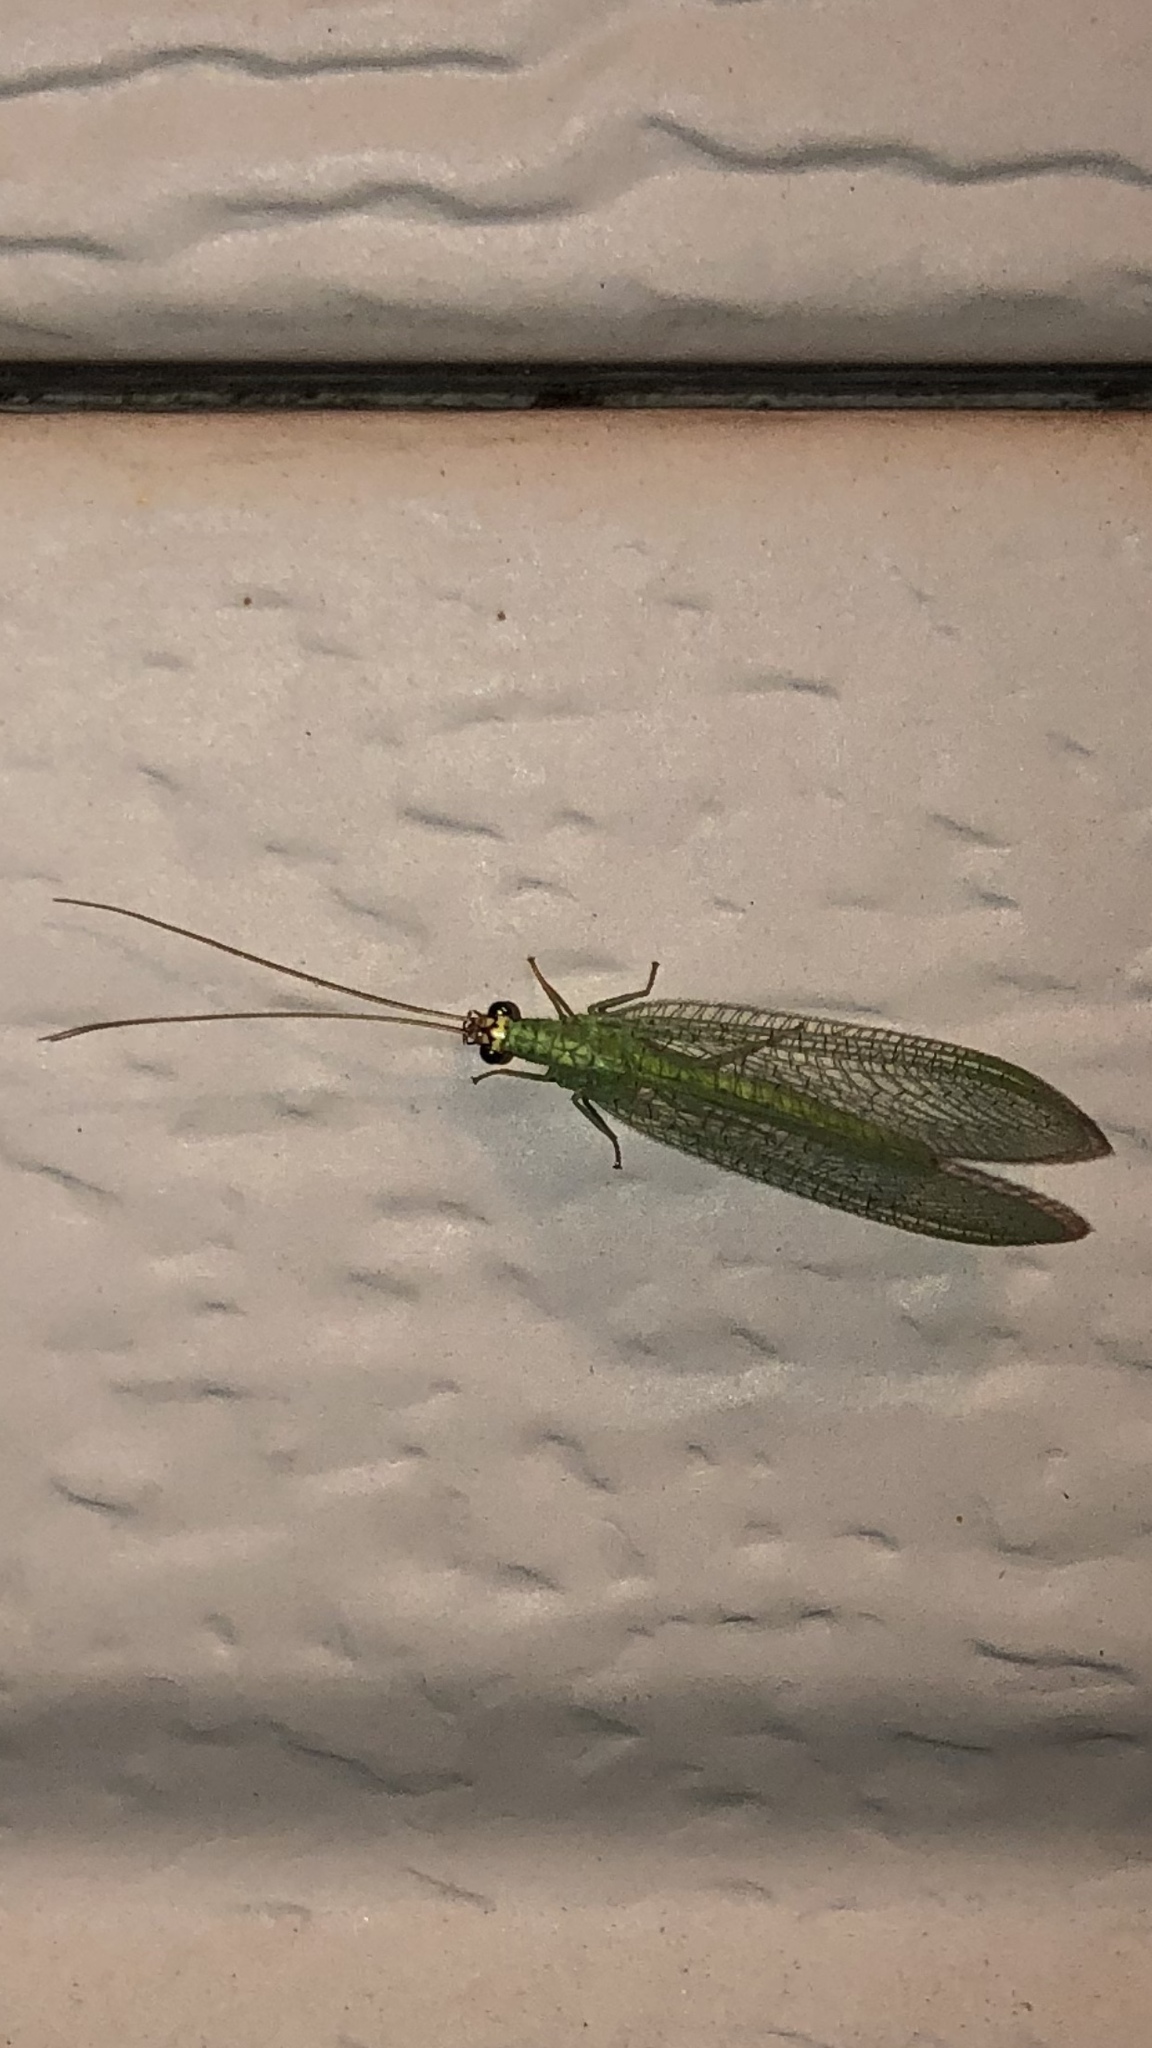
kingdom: Animalia
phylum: Arthropoda
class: Insecta
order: Neuroptera
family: Chrysopidae
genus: Chrysopa
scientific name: Chrysopa oculata
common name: Golden-eyed lacewing
